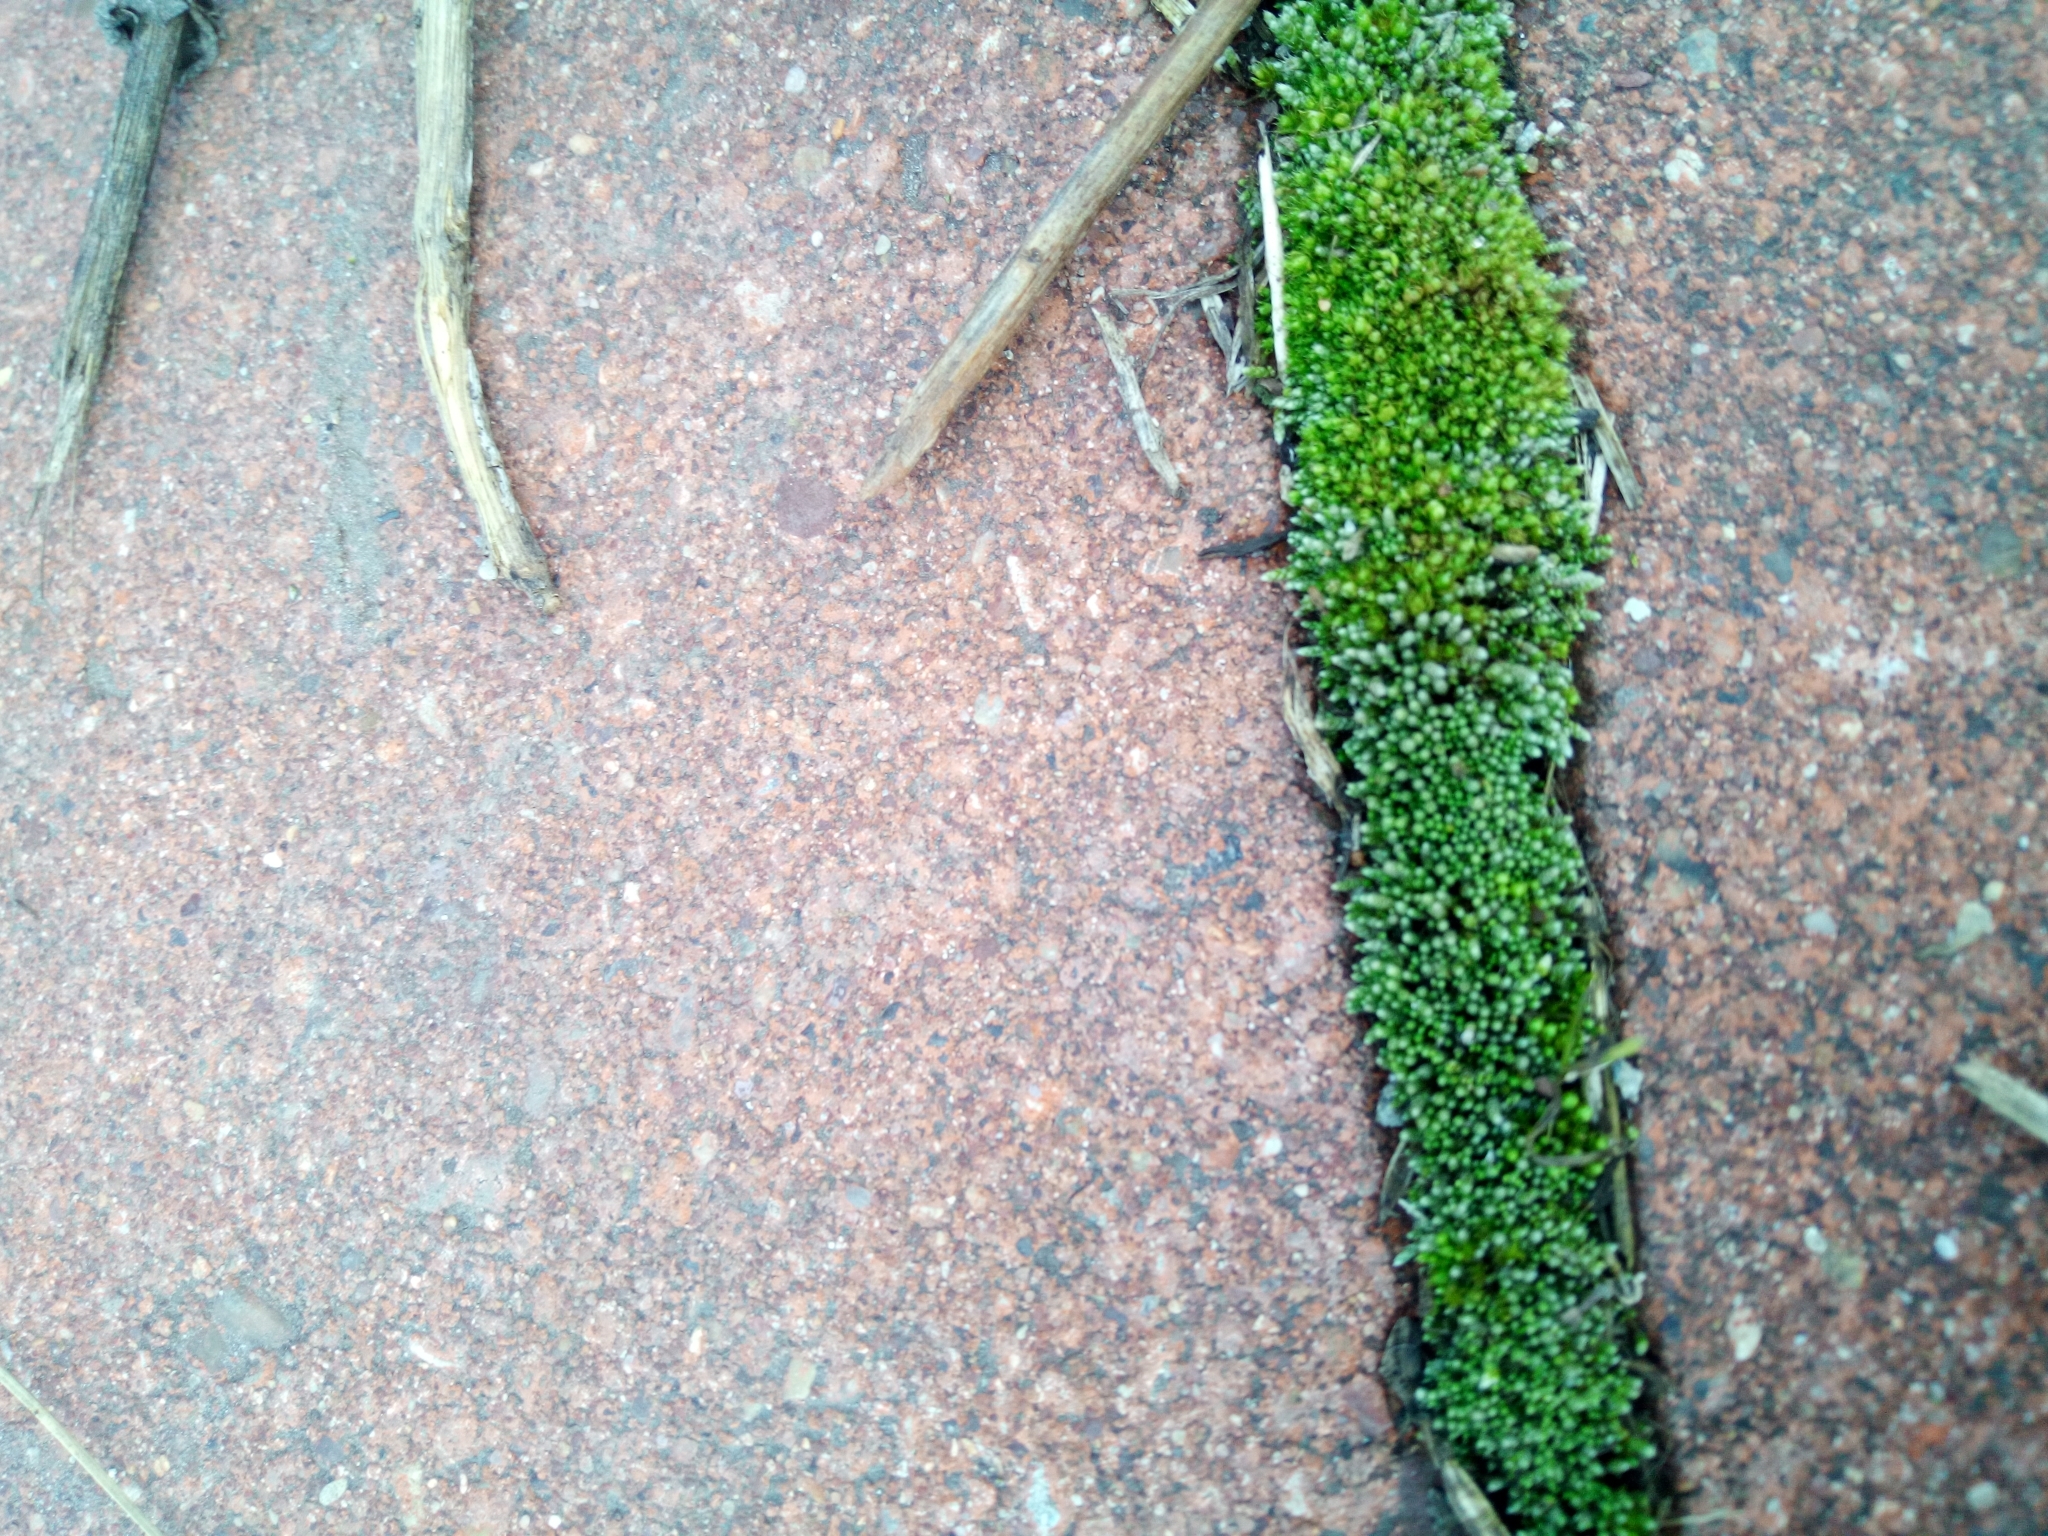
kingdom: Plantae
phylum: Bryophyta
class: Bryopsida
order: Bryales
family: Bryaceae
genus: Bryum
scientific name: Bryum argenteum
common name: Silver-moss
